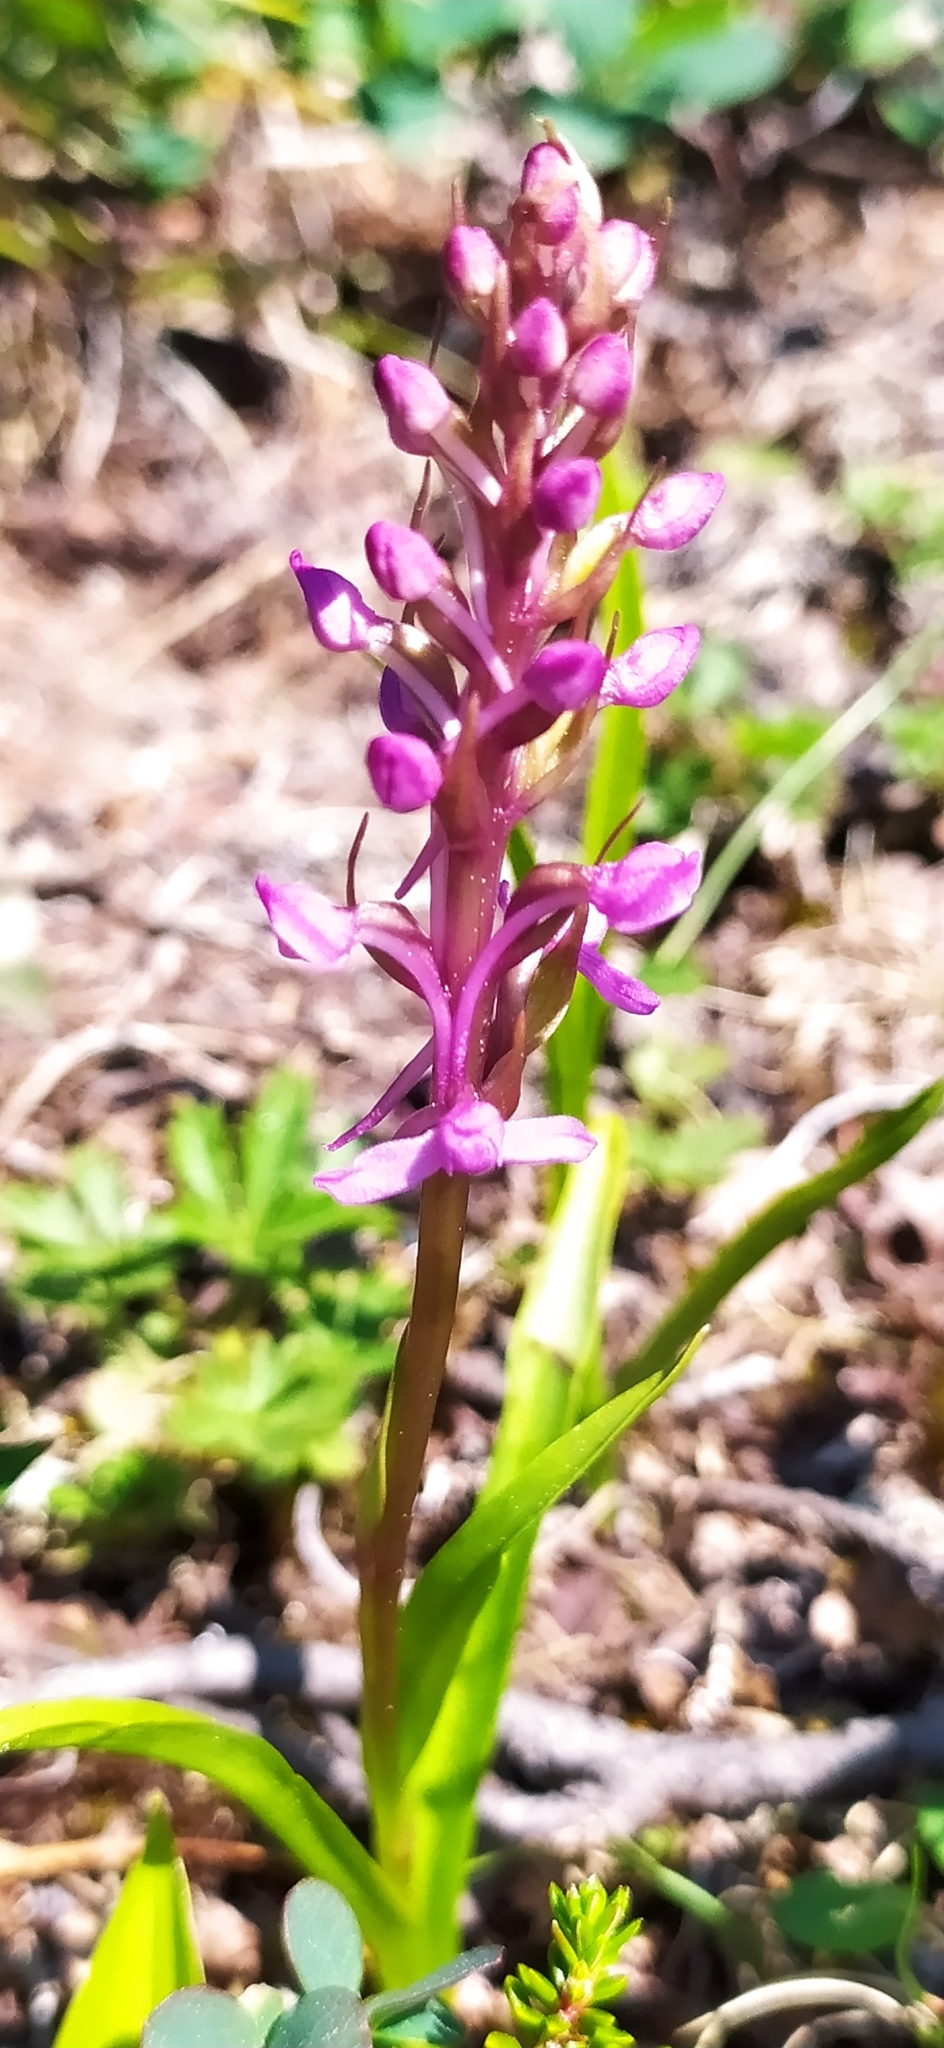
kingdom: Plantae
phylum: Tracheophyta
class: Liliopsida
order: Asparagales
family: Orchidaceae
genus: Gymnadenia
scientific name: Gymnadenia conopsea
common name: Fragrant orchid
